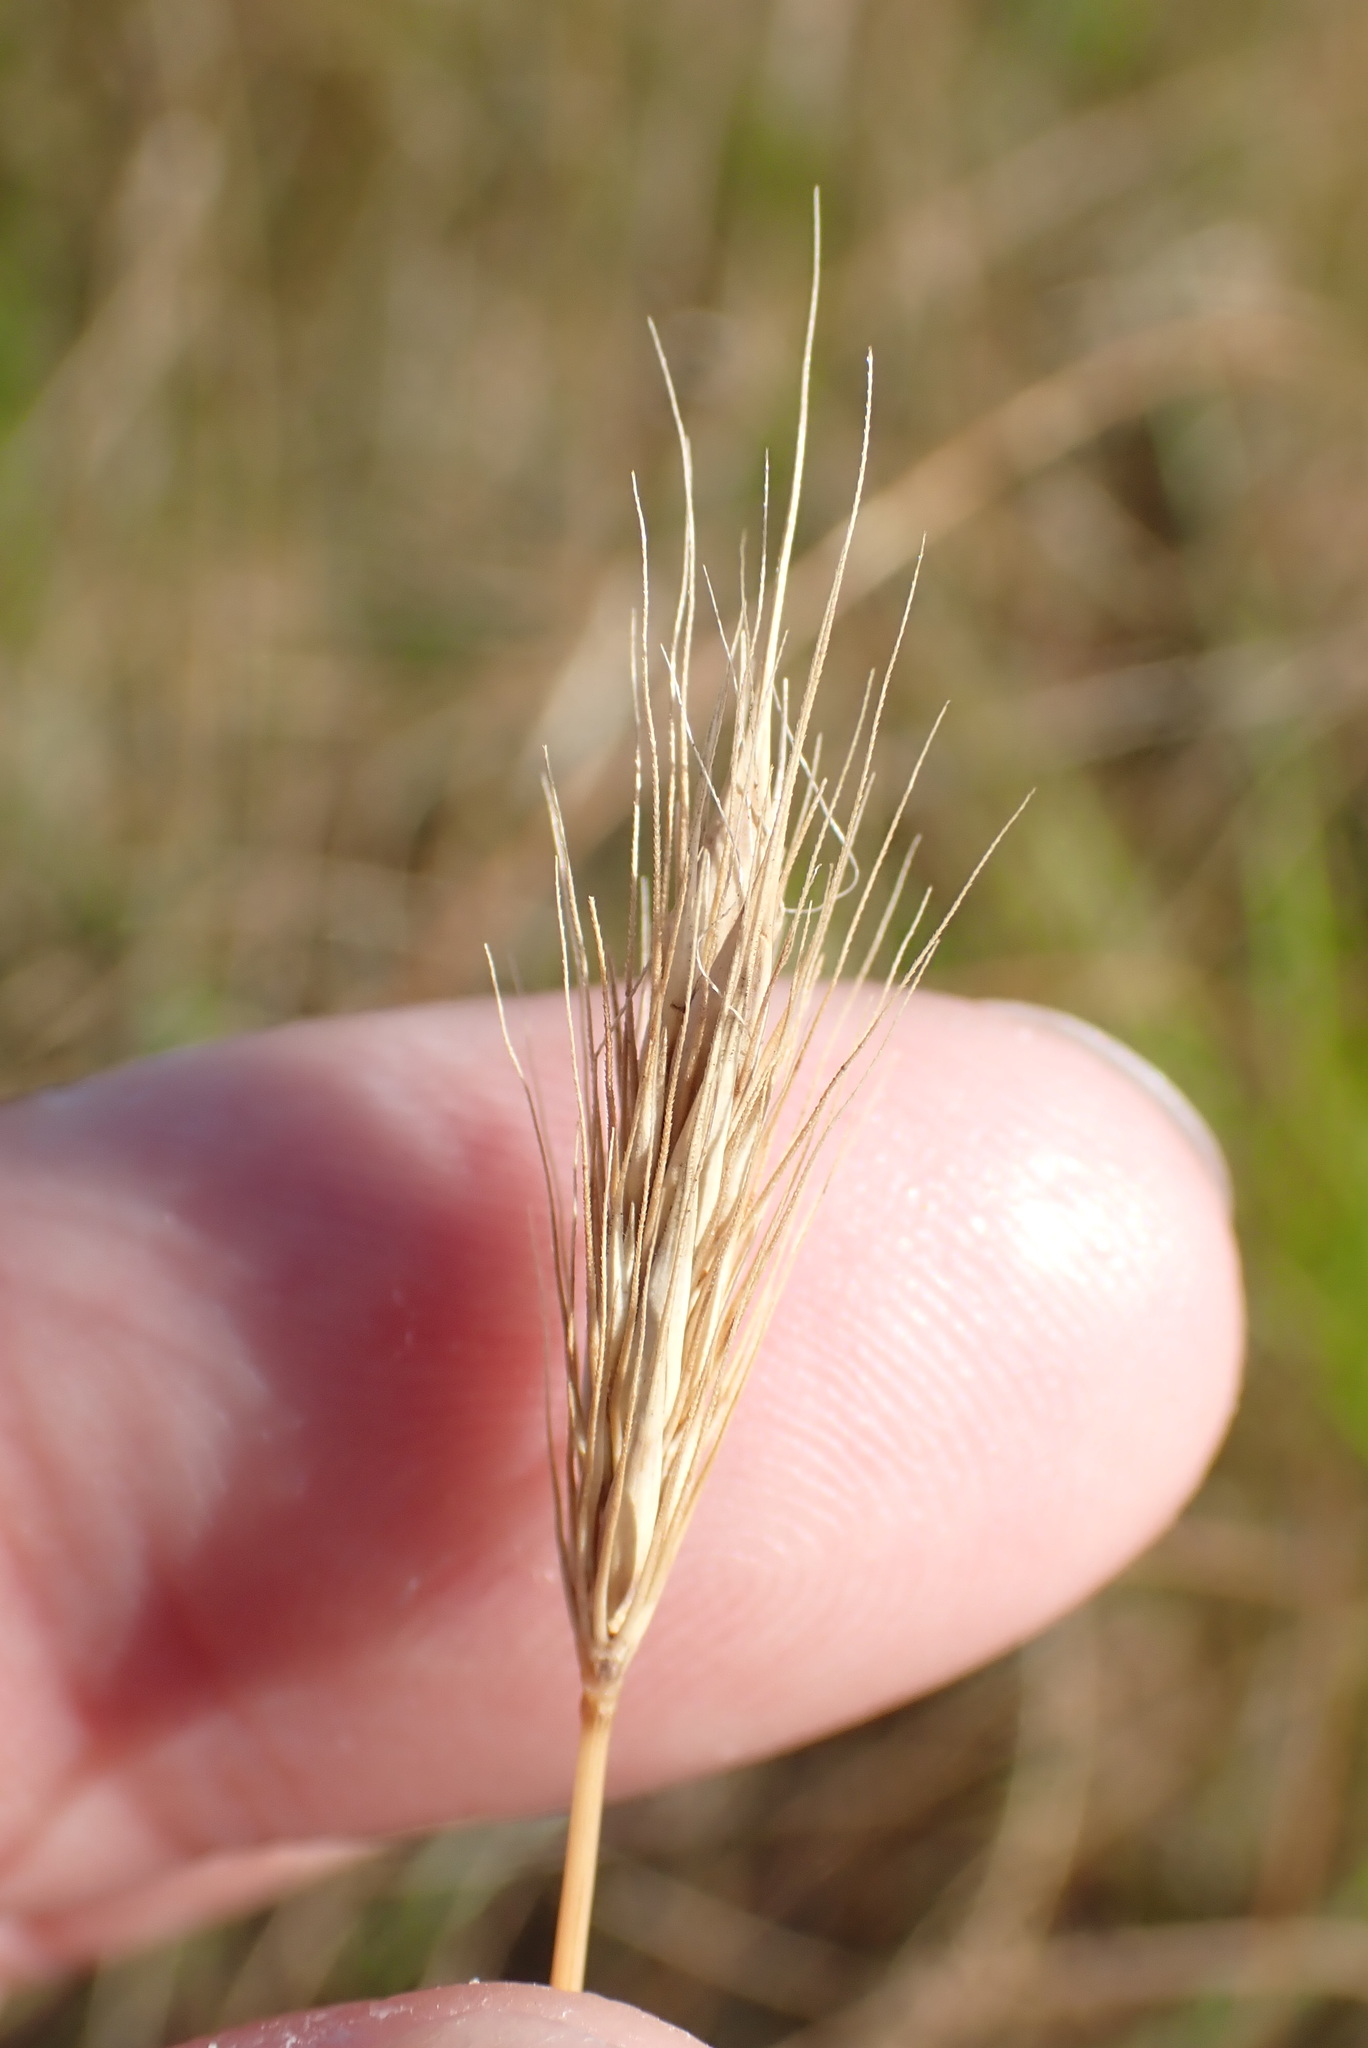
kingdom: Plantae
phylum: Tracheophyta
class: Liliopsida
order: Poales
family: Poaceae
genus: Hordeum
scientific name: Hordeum secalinum
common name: Meadow barley
